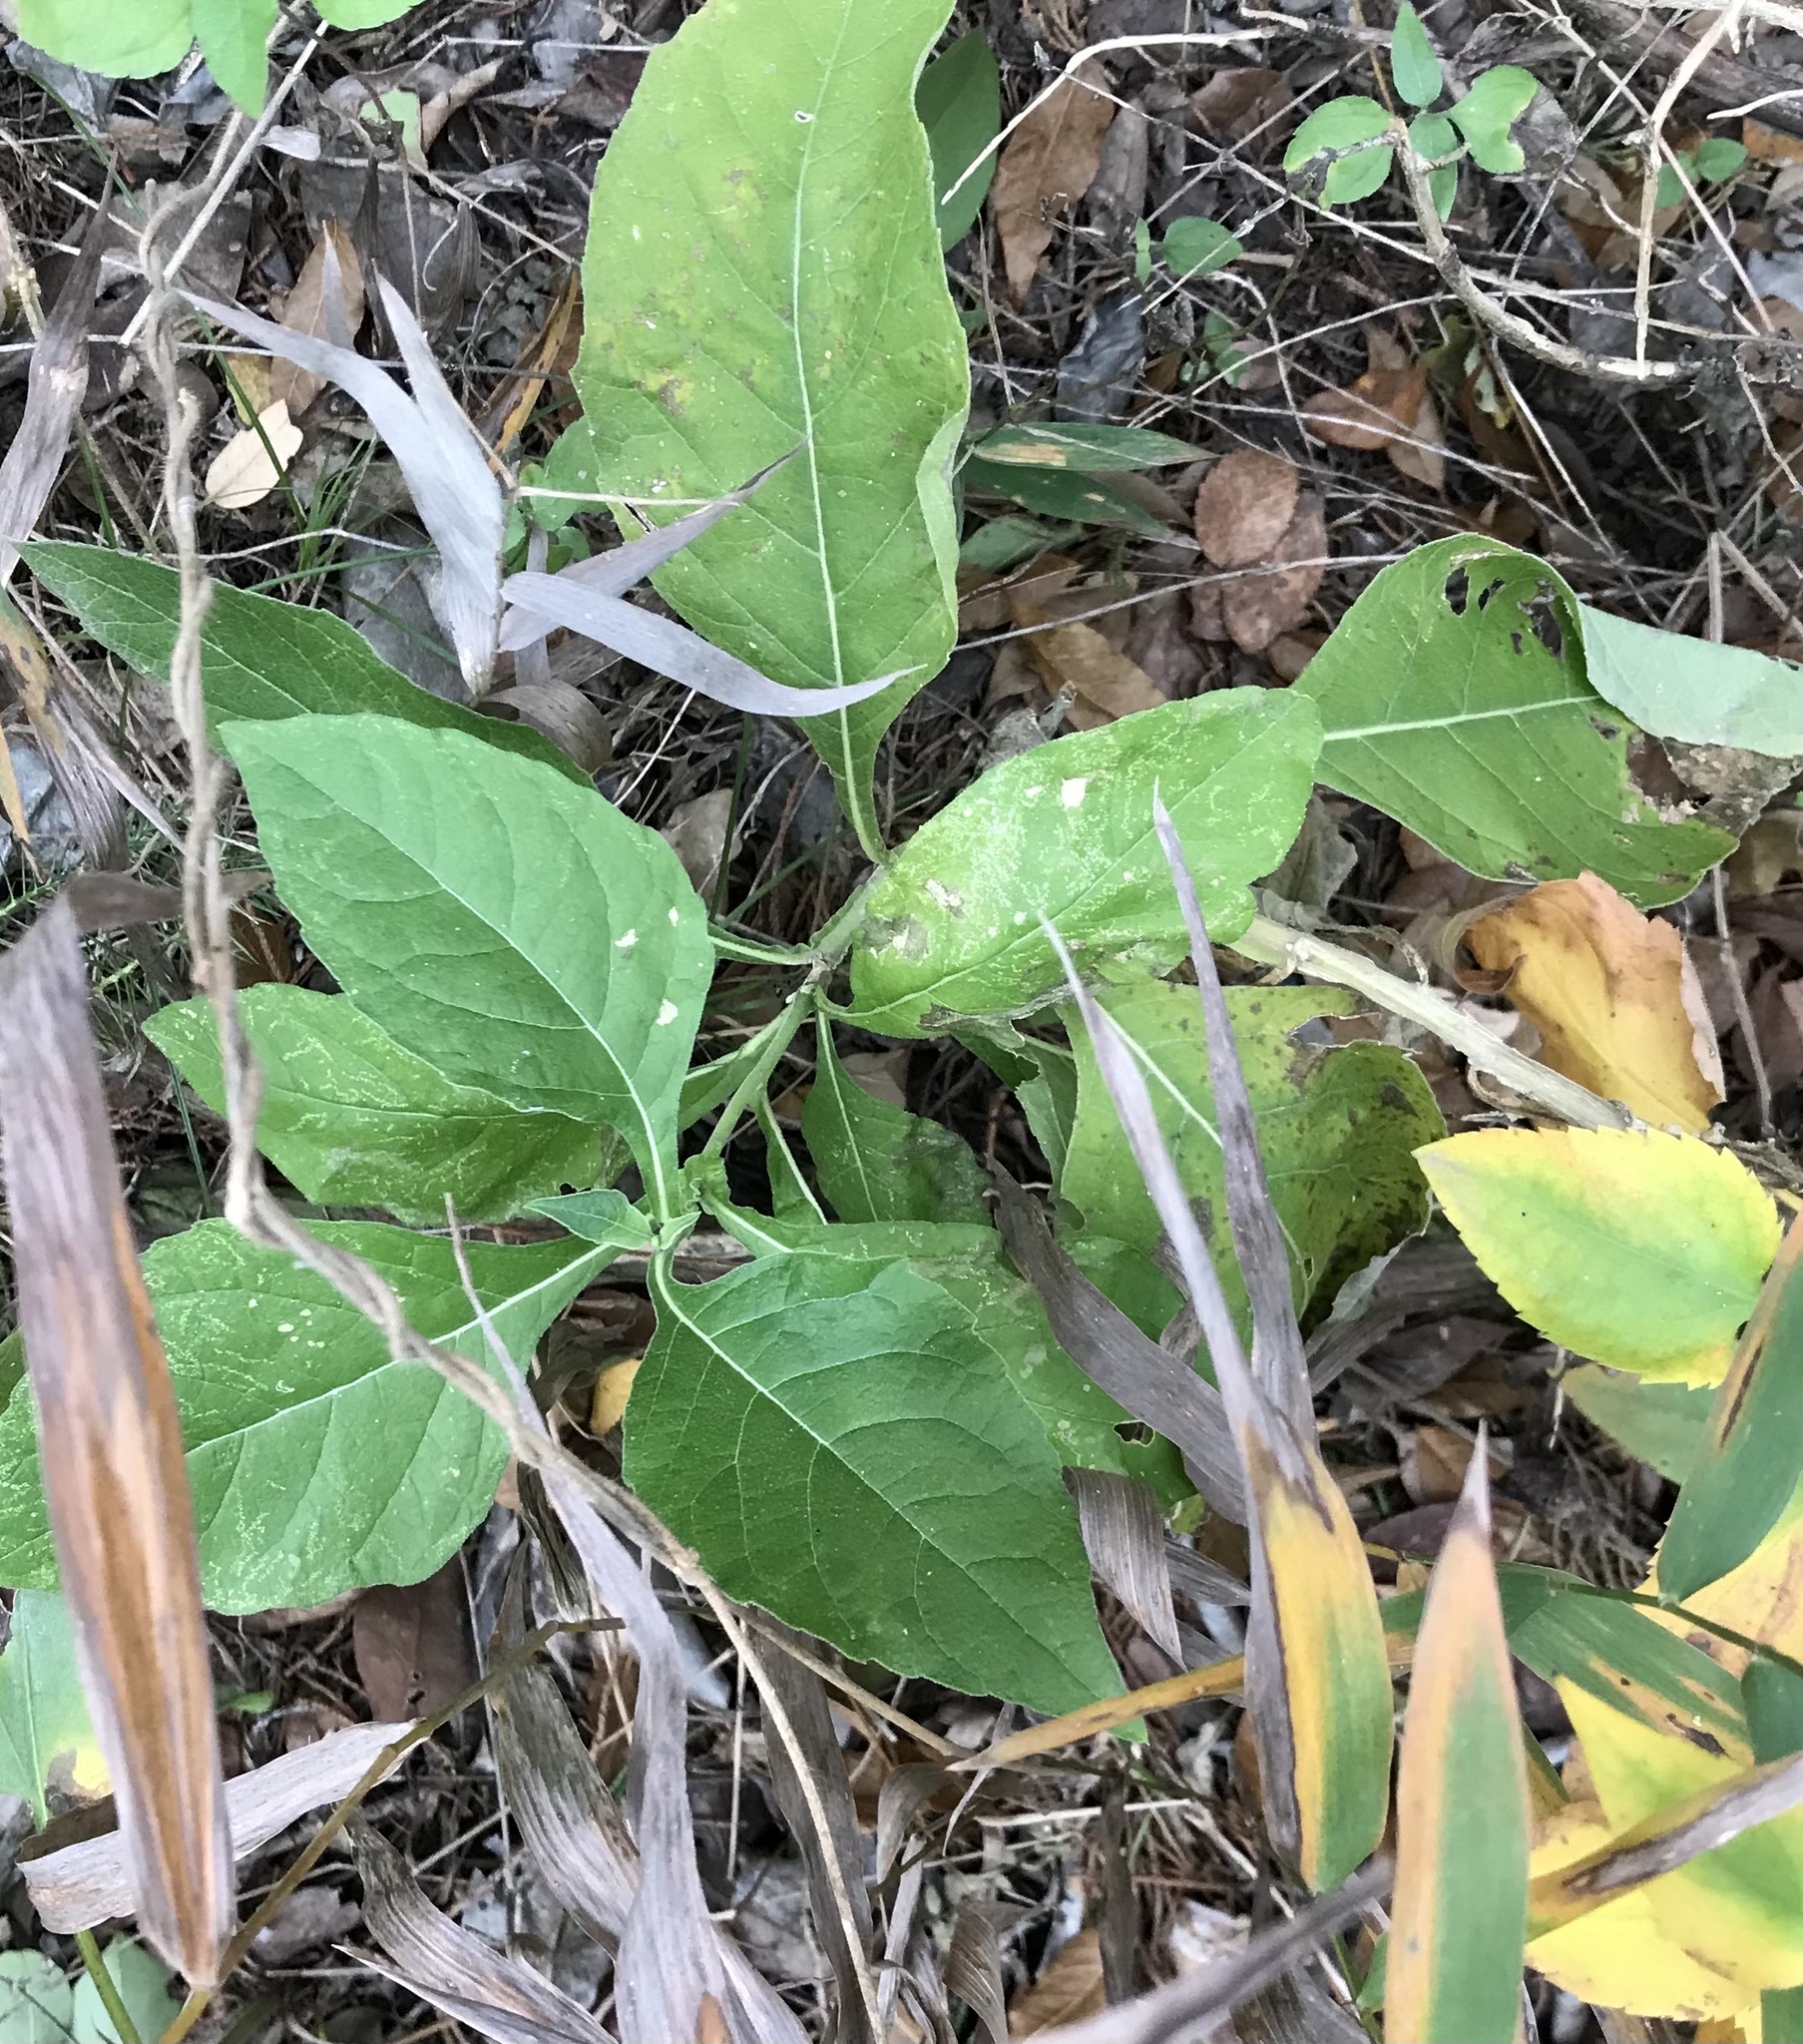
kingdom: Plantae
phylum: Tracheophyta
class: Magnoliopsida
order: Asterales
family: Asteraceae
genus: Verbesina
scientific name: Verbesina virginica
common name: Frostweed
